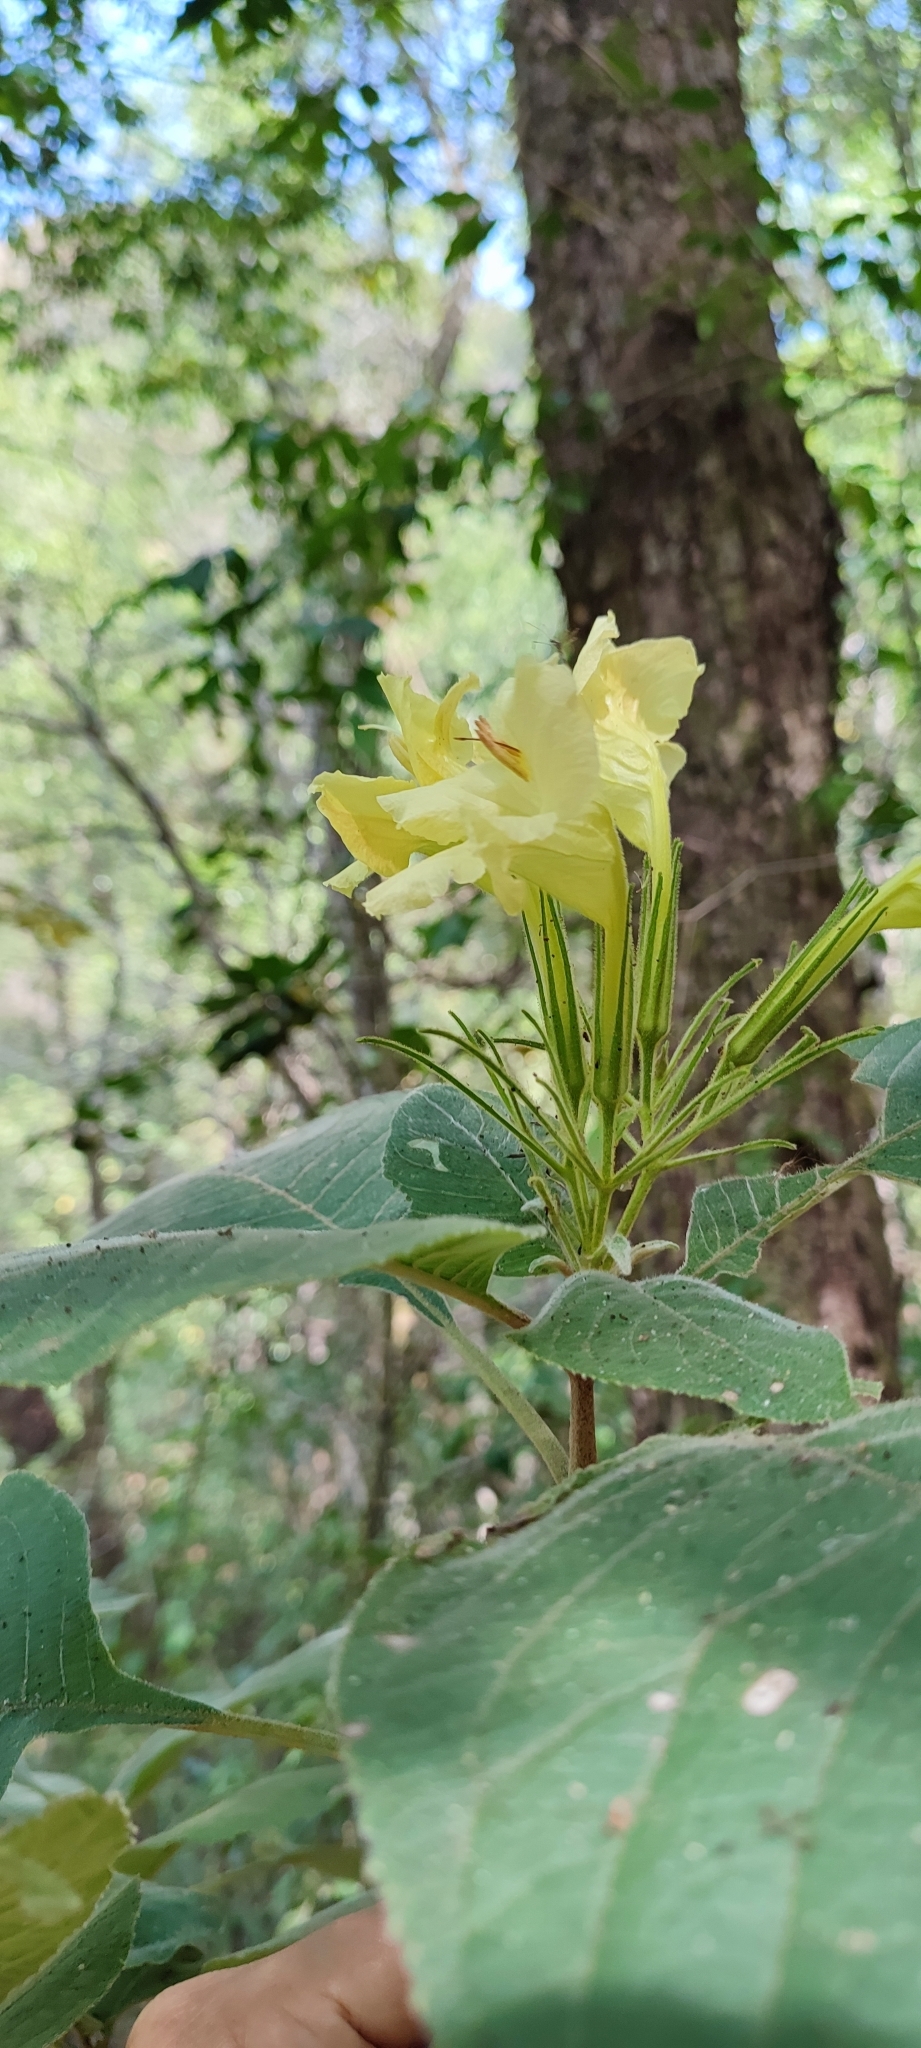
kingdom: Plantae
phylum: Tracheophyta
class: Magnoliopsida
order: Lamiales
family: Acanthaceae
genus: Ruellia
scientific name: Ruellia jaliscana
